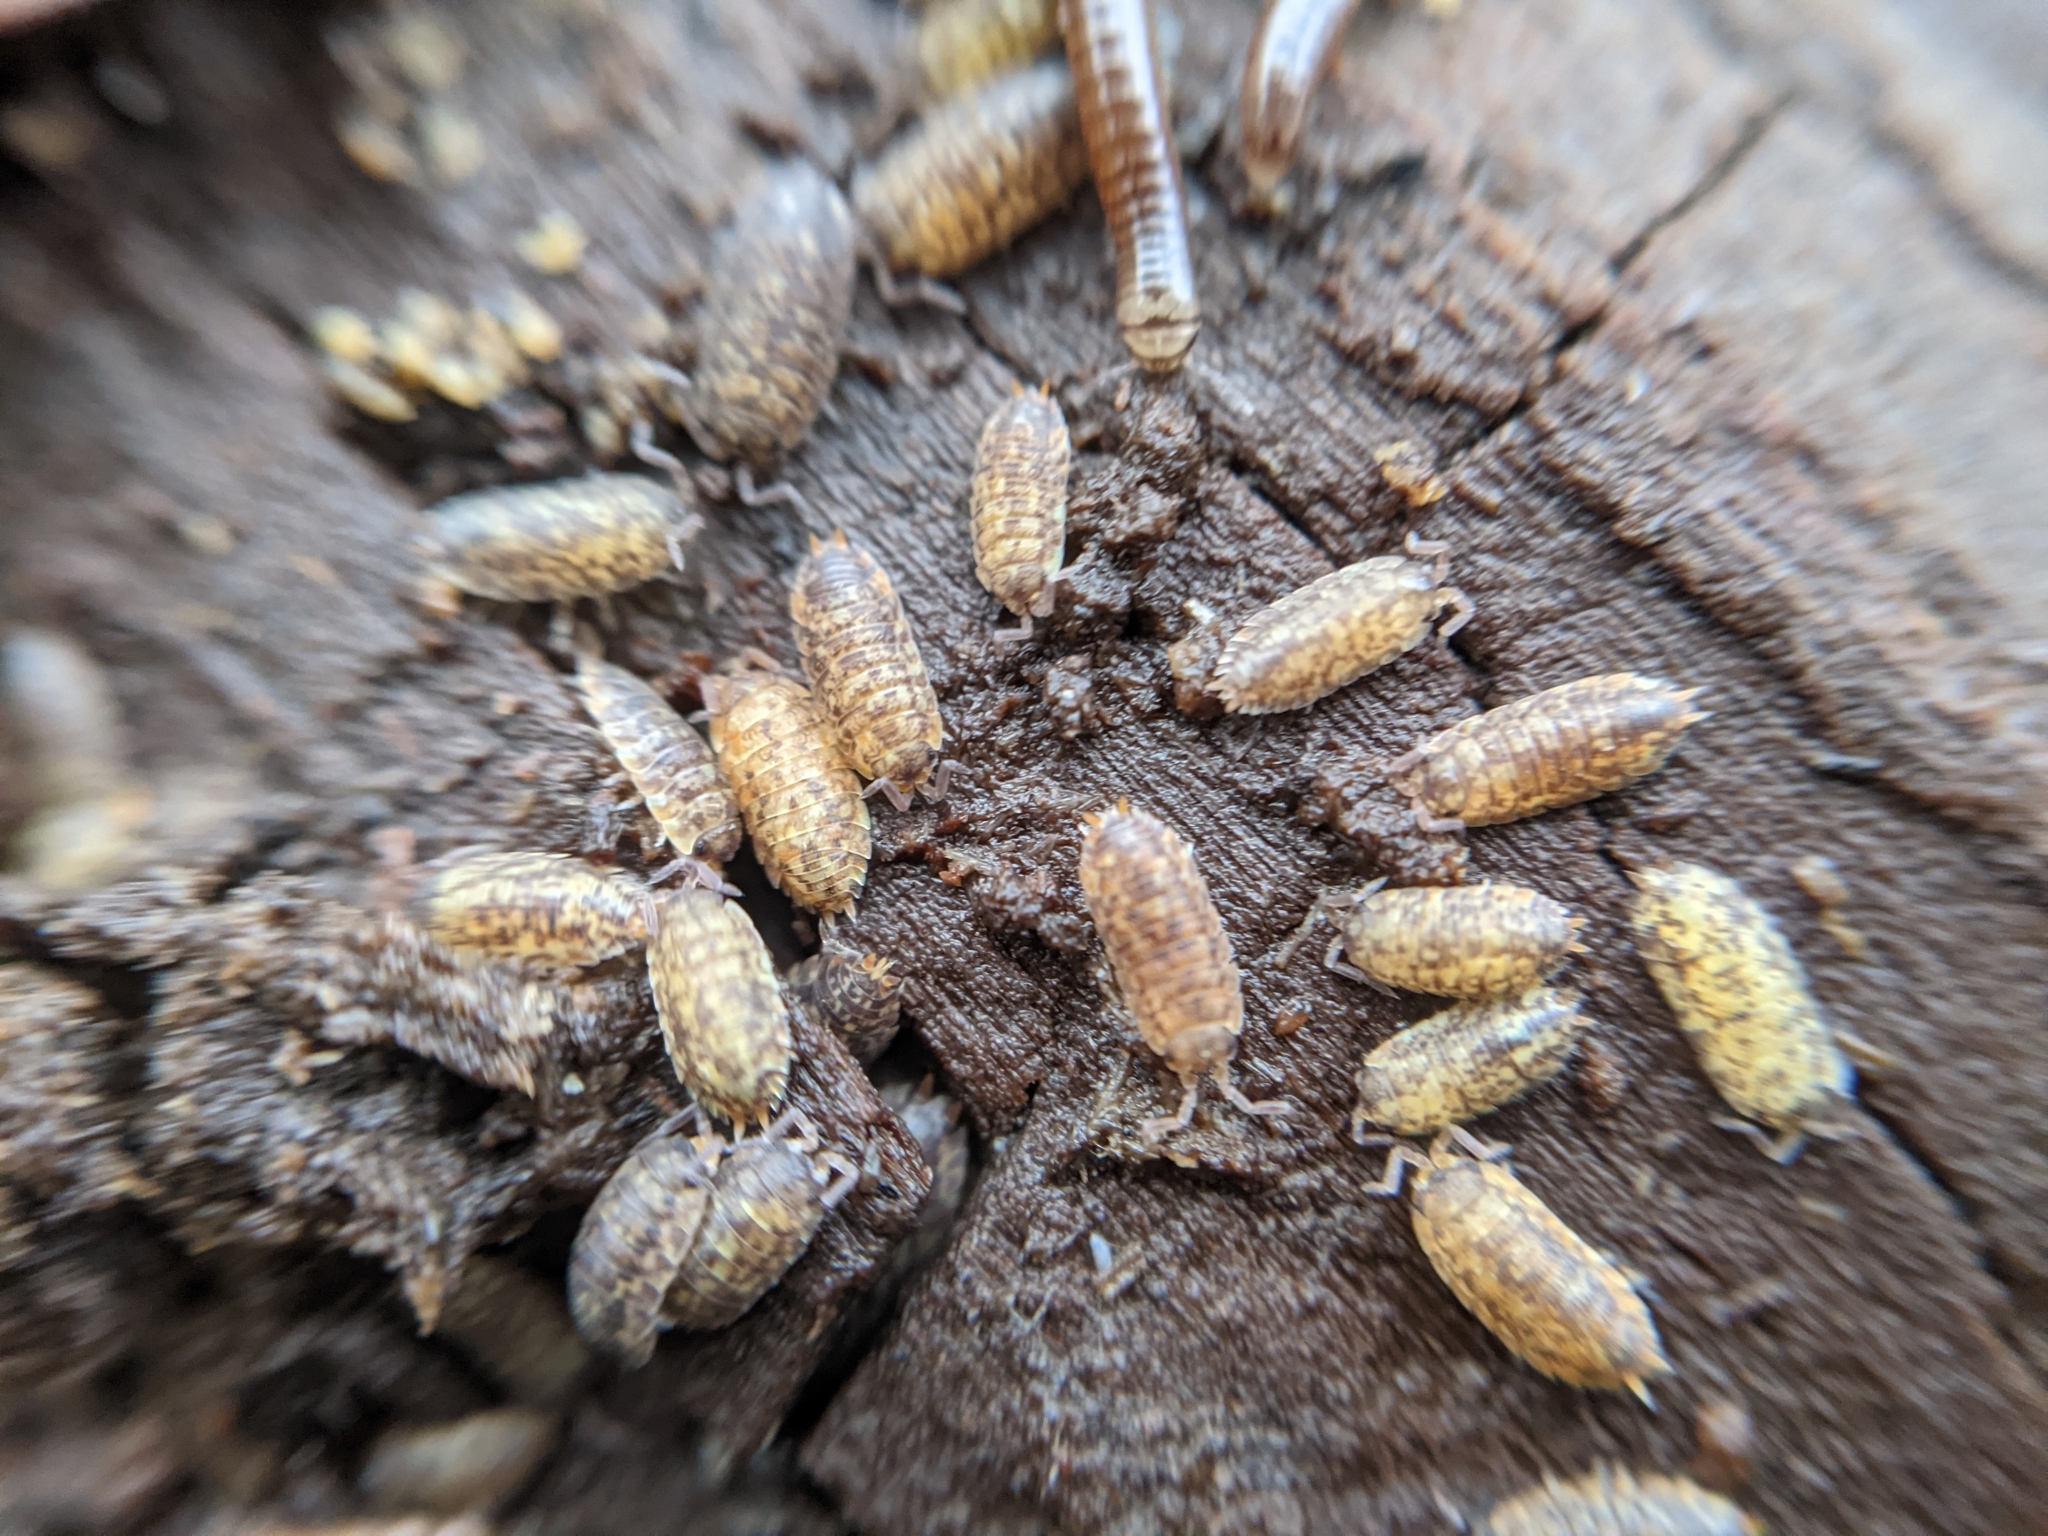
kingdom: Animalia
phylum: Arthropoda
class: Malacostraca
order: Isopoda
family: Porcellionidae
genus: Porcellio
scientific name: Porcellio scaber
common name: Common rough woodlouse
